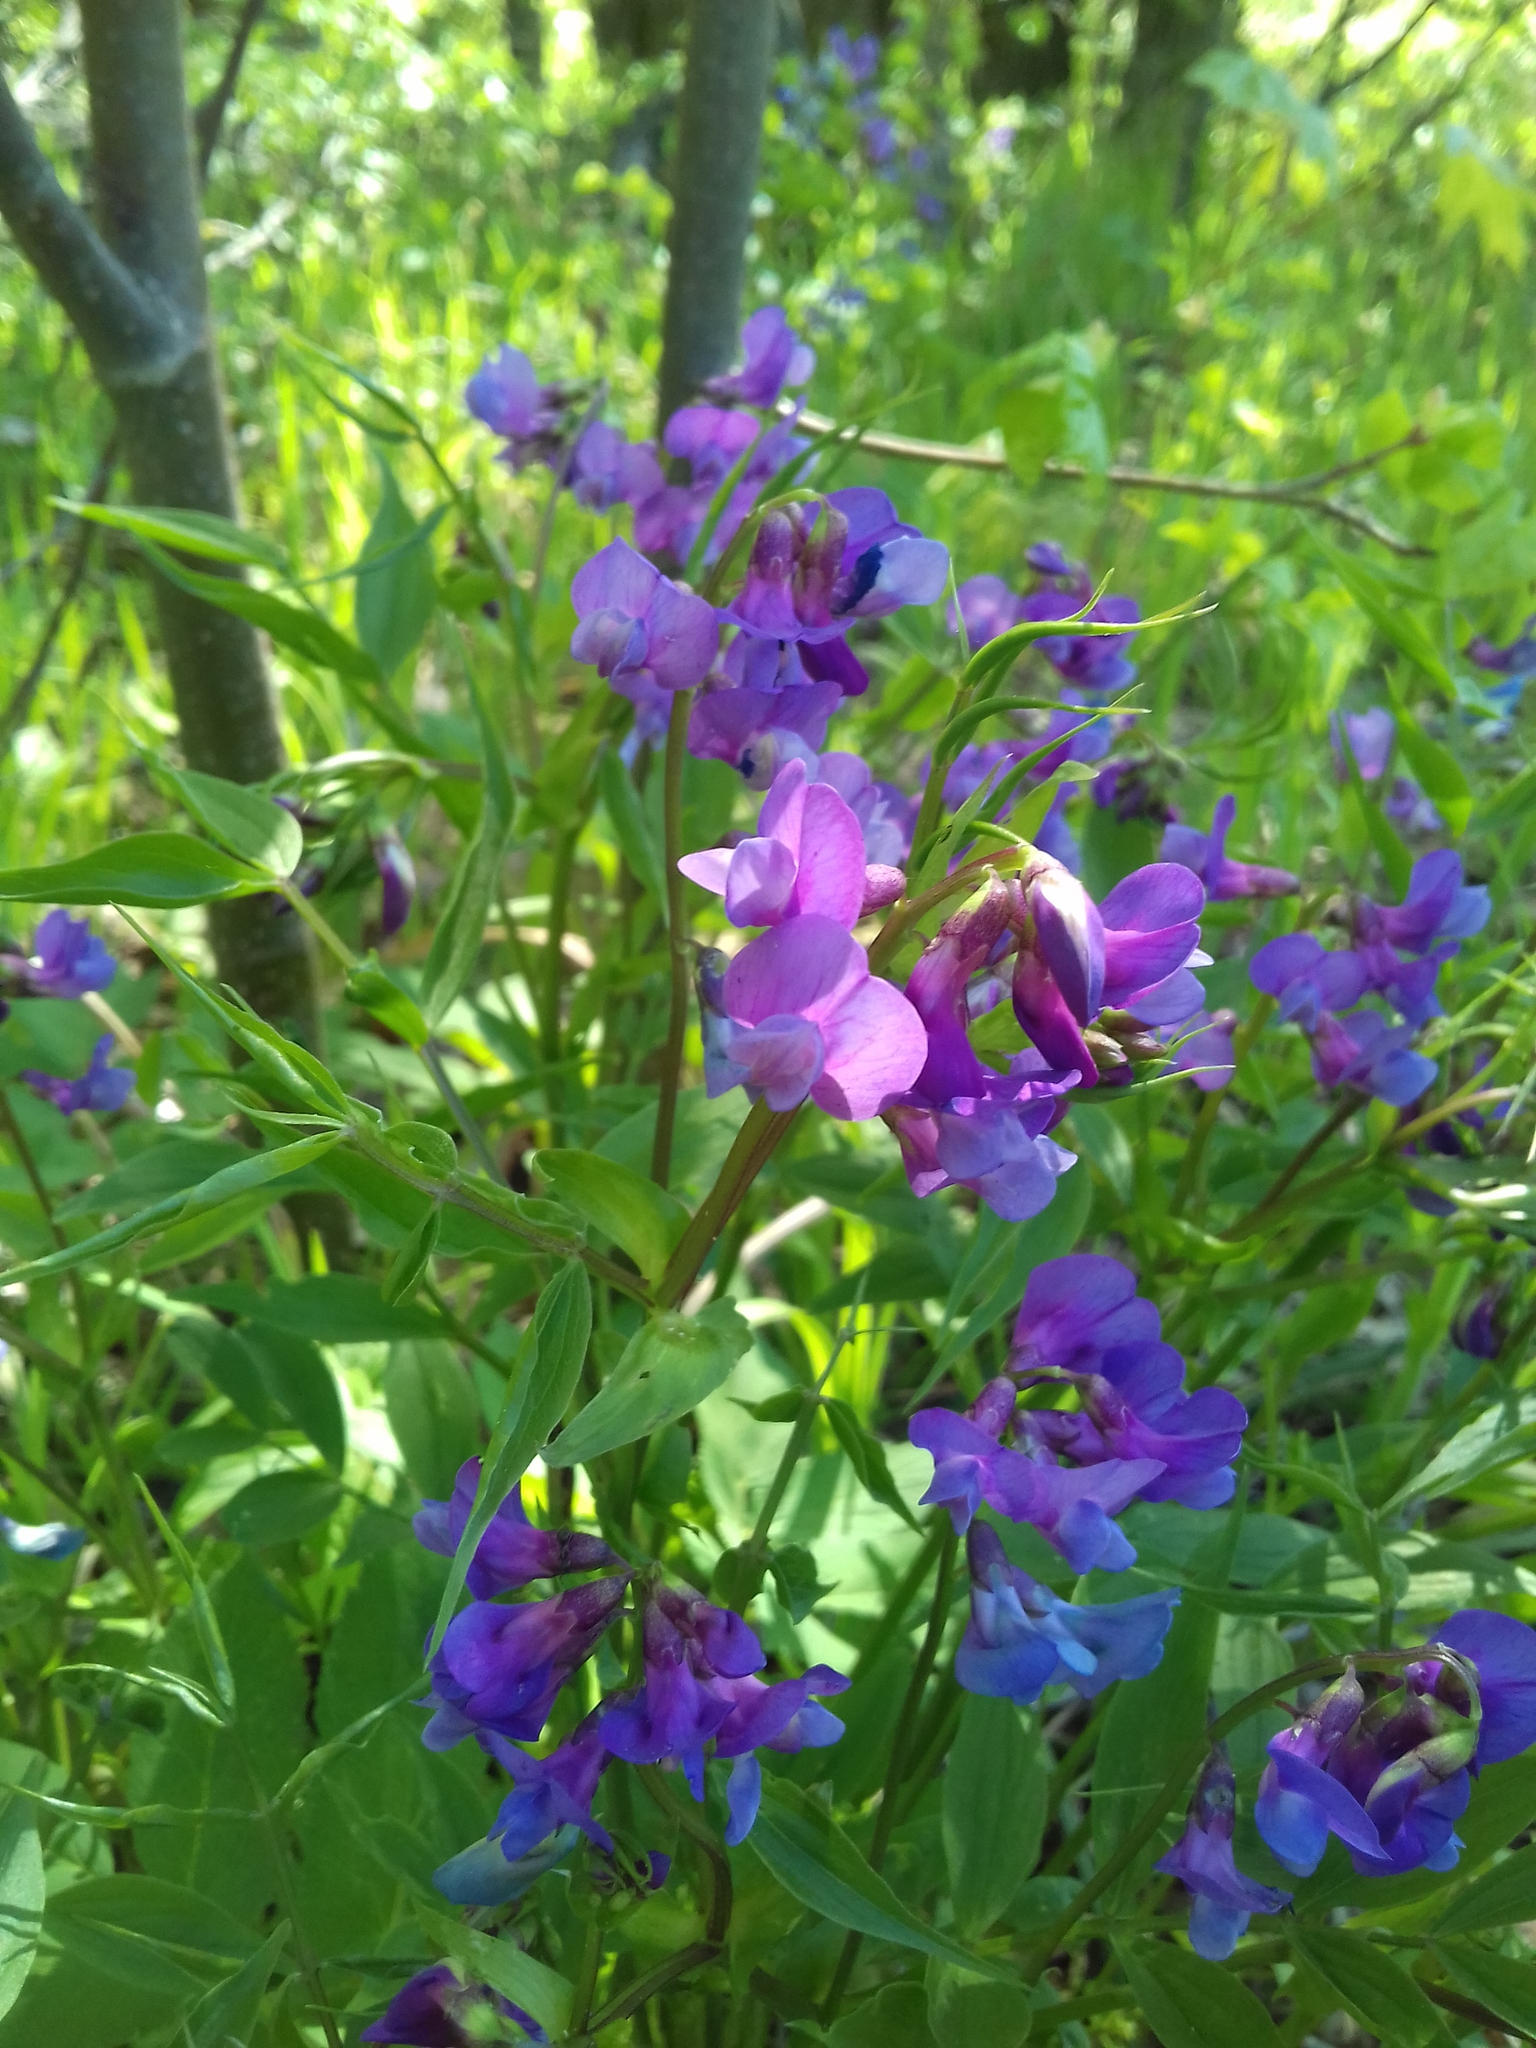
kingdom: Plantae
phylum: Tracheophyta
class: Magnoliopsida
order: Fabales
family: Fabaceae
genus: Lathyrus
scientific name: Lathyrus vernus
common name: Spring pea
